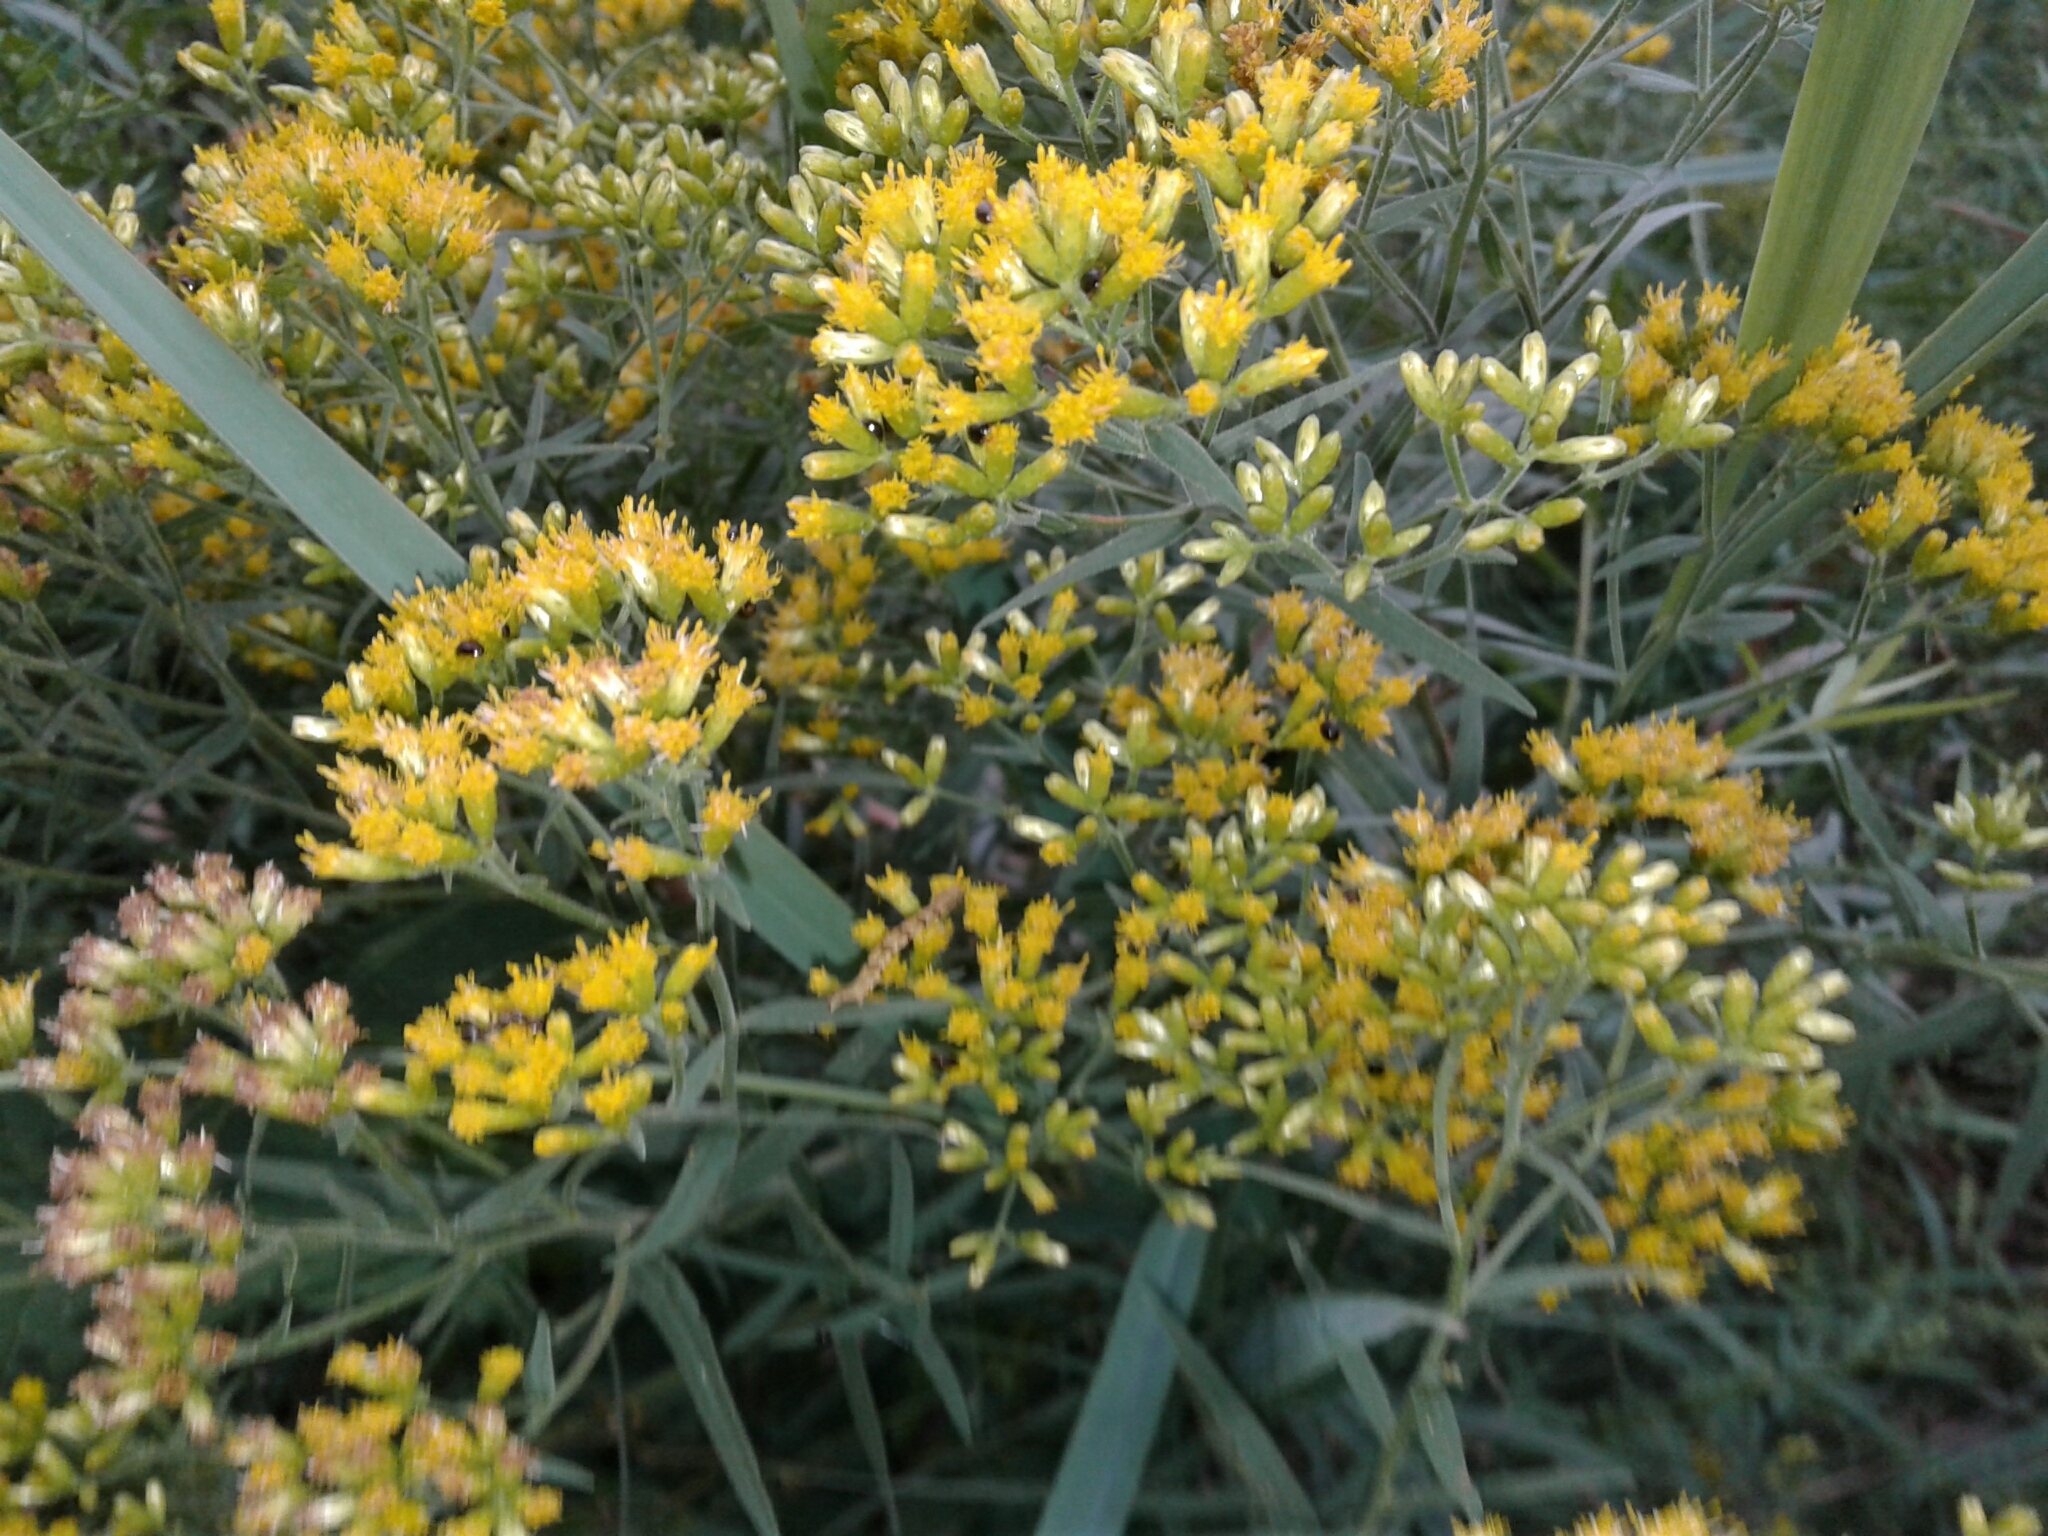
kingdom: Plantae
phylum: Tracheophyta
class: Magnoliopsida
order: Asterales
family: Asteraceae
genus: Euthamia
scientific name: Euthamia graminifolia
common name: Common goldentop
